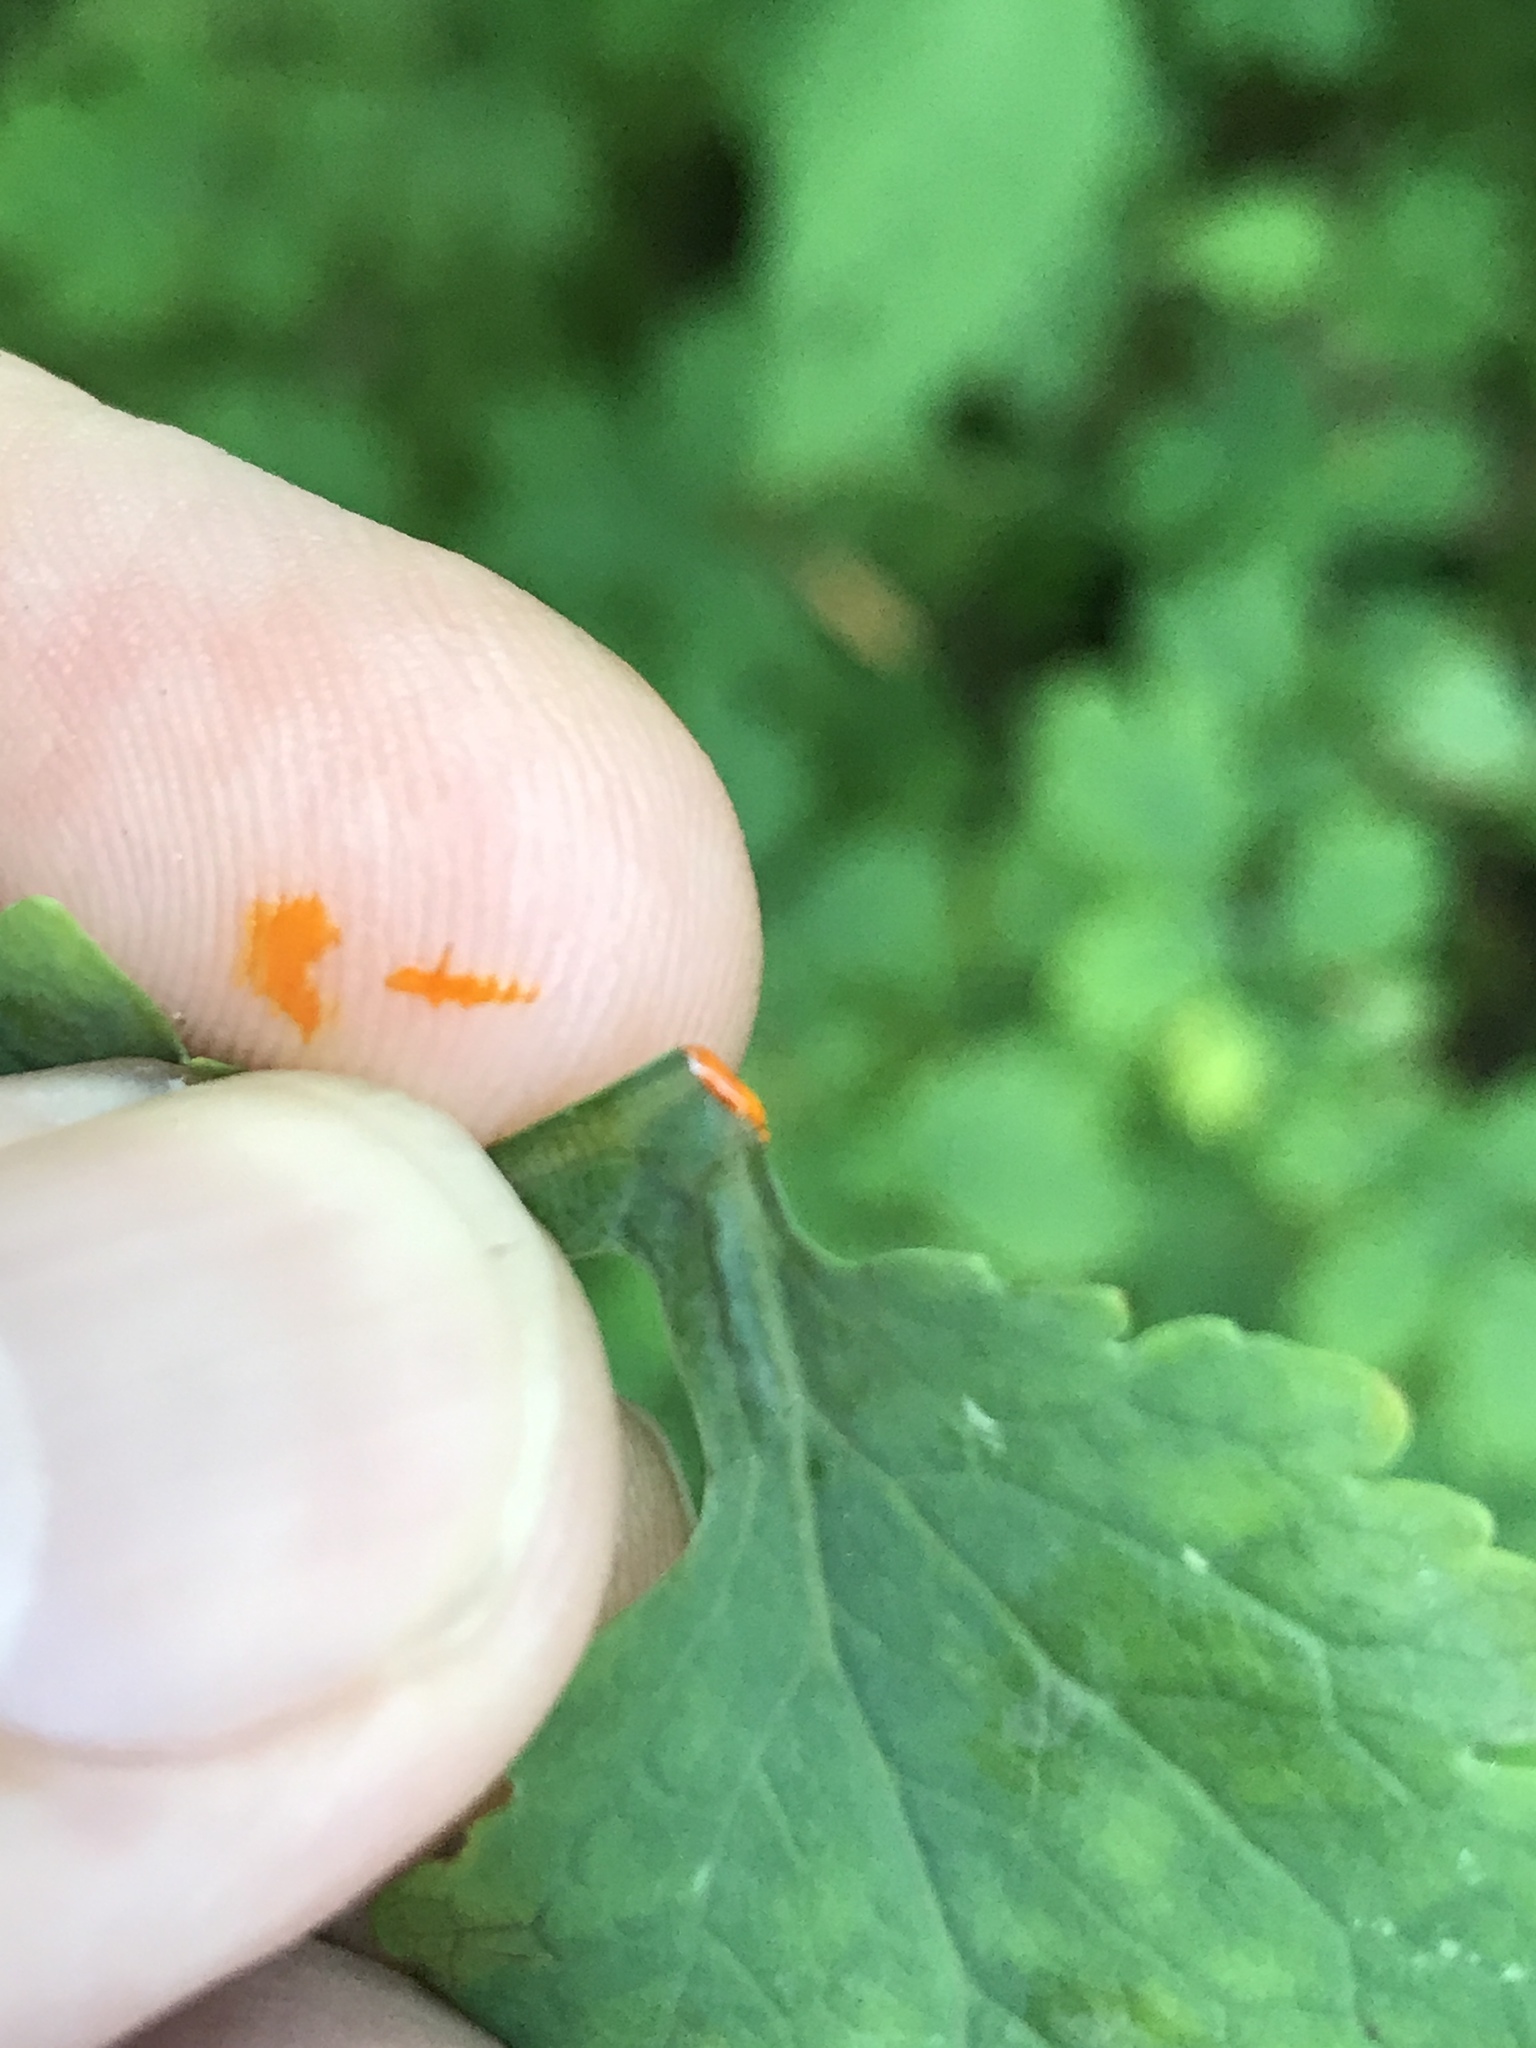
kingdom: Plantae
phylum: Tracheophyta
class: Magnoliopsida
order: Ranunculales
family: Papaveraceae
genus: Chelidonium
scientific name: Chelidonium majus
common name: Greater celandine
